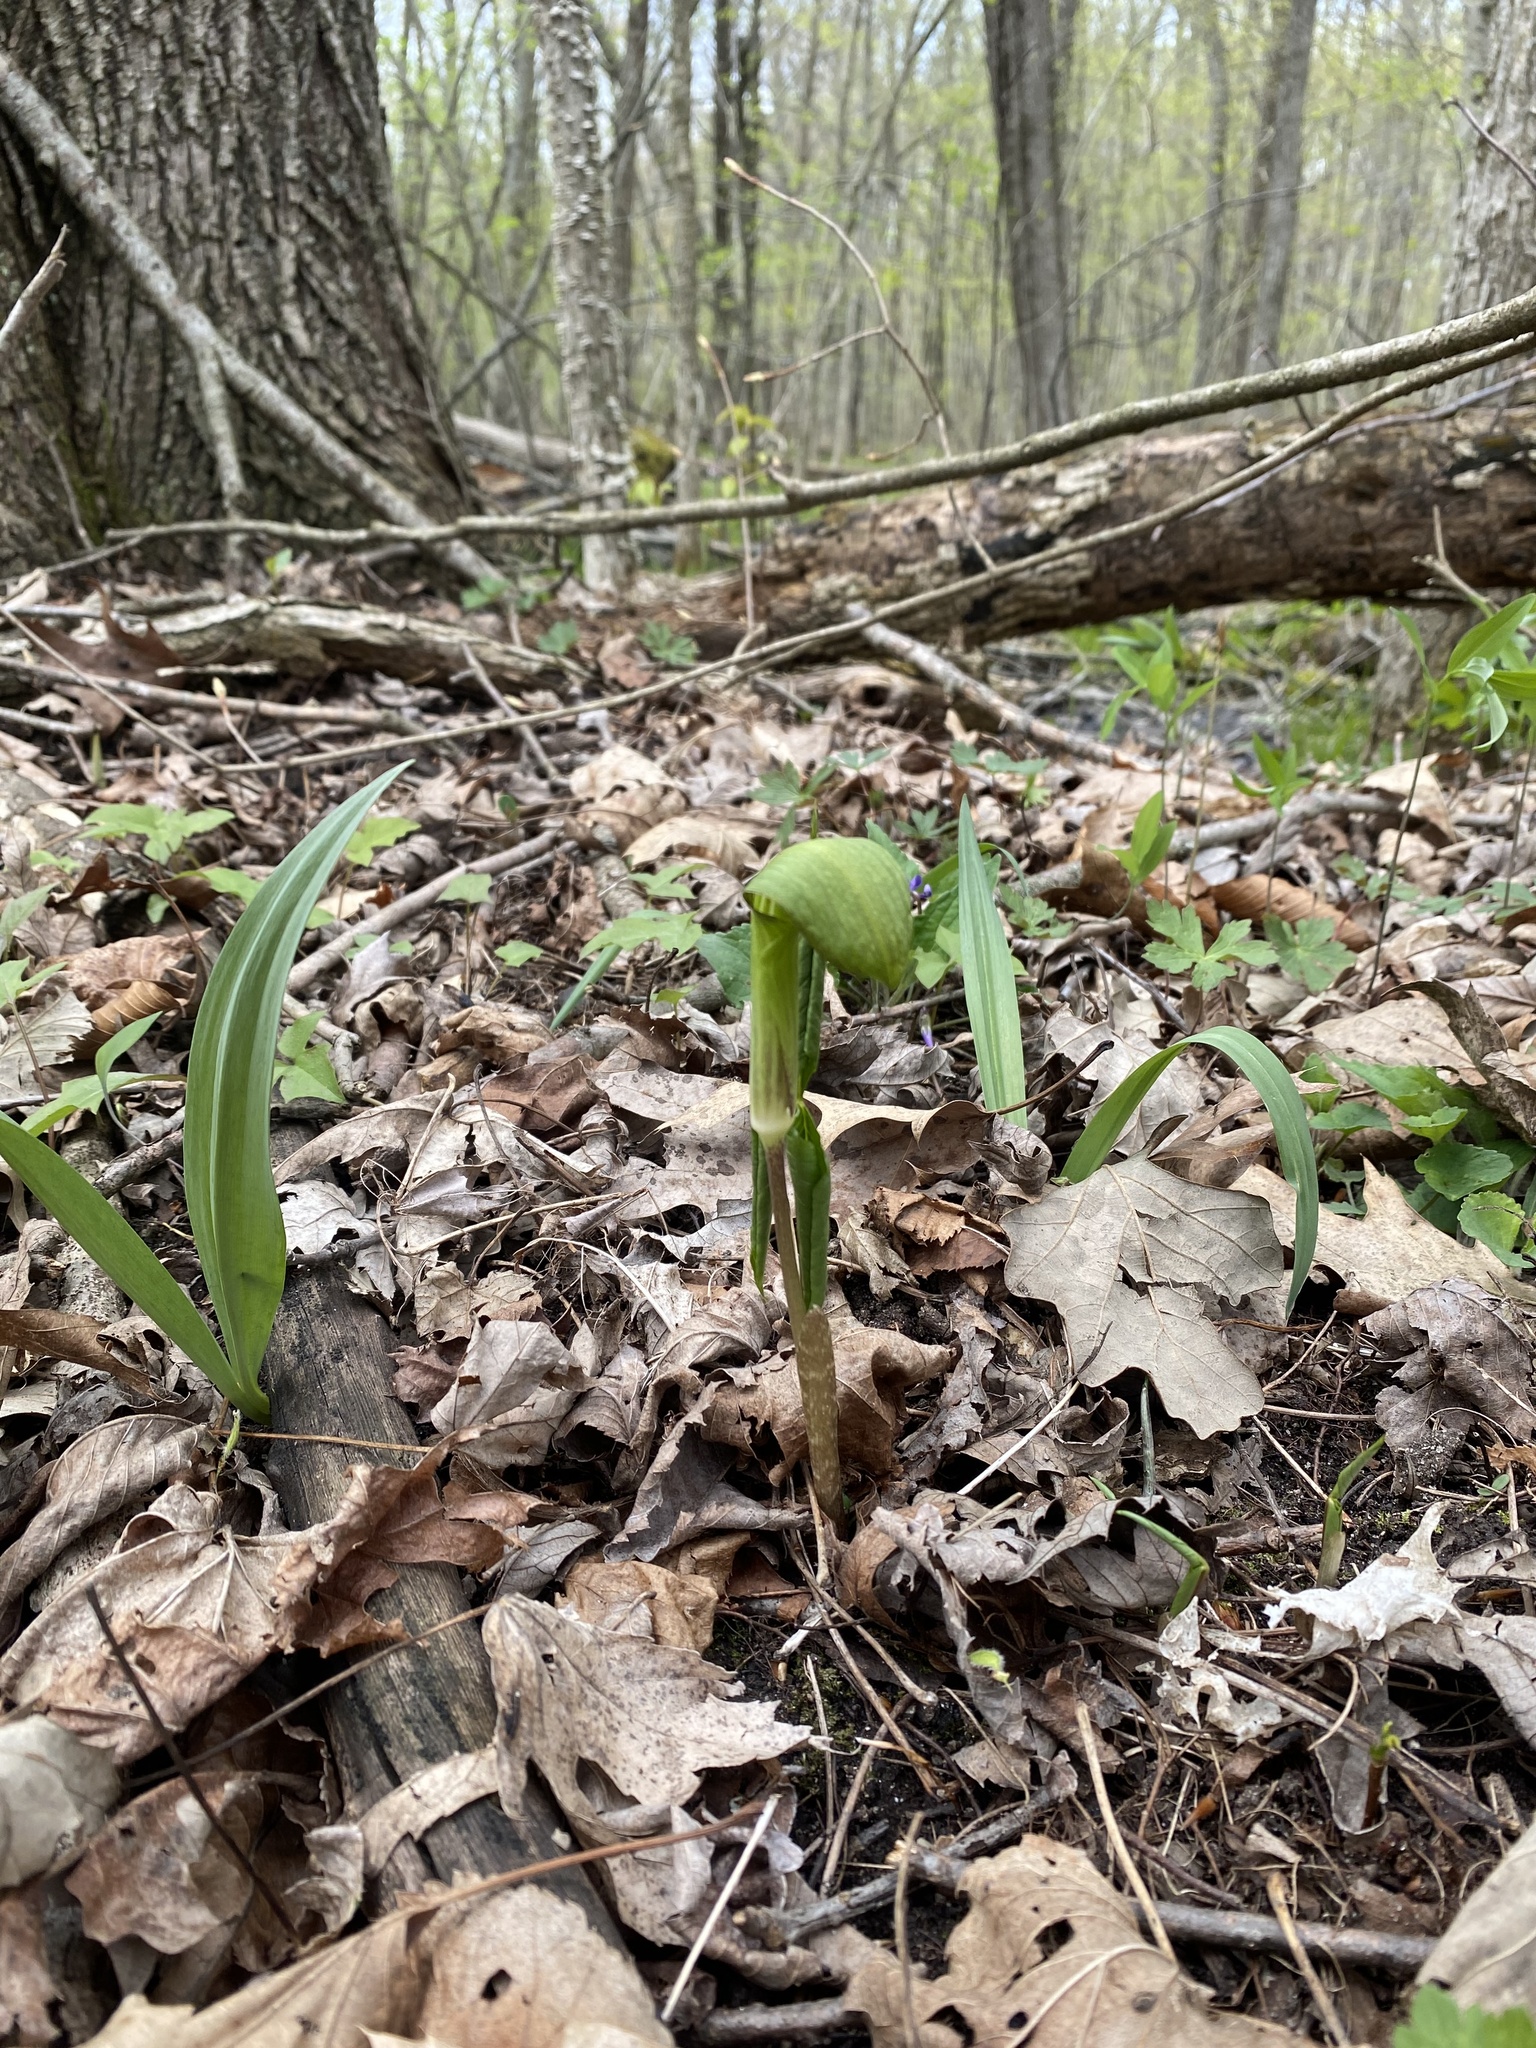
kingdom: Plantae
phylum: Tracheophyta
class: Liliopsida
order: Alismatales
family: Araceae
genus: Arisaema
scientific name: Arisaema triphyllum
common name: Jack-in-the-pulpit
